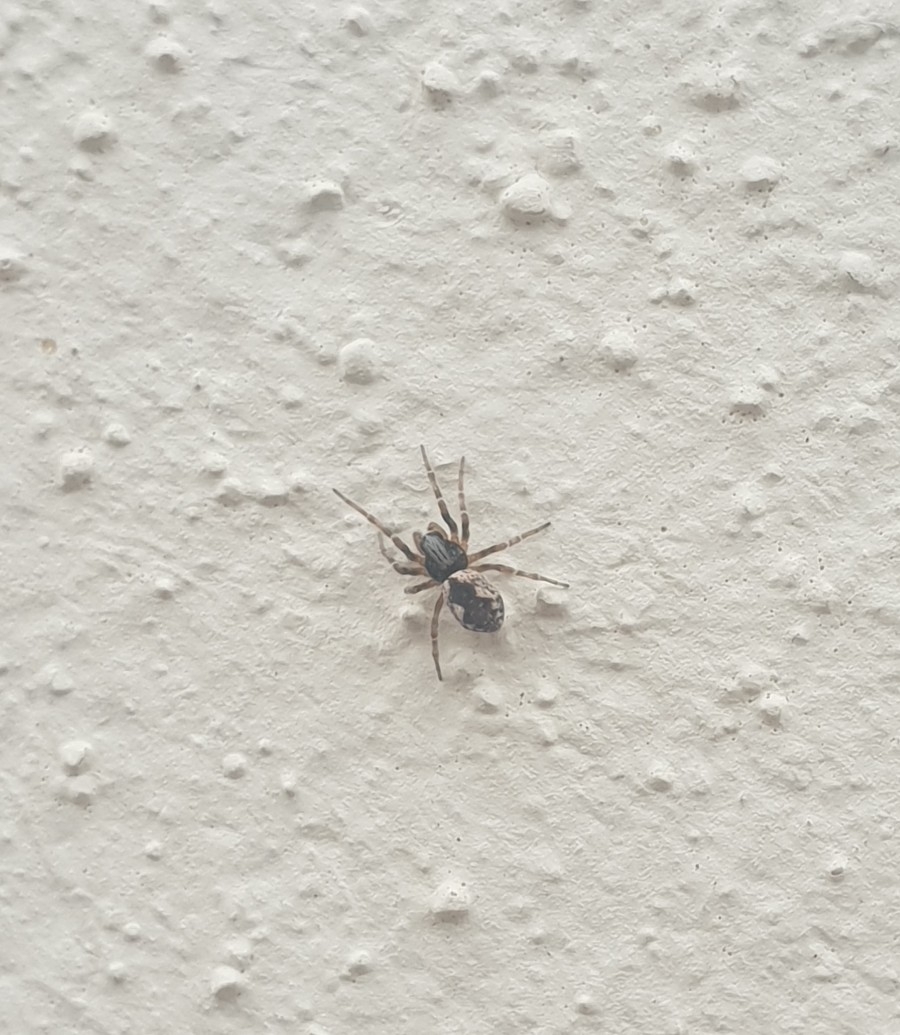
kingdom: Animalia
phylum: Arthropoda
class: Arachnida
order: Araneae
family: Dictynidae
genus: Brigittea
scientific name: Brigittea civica
